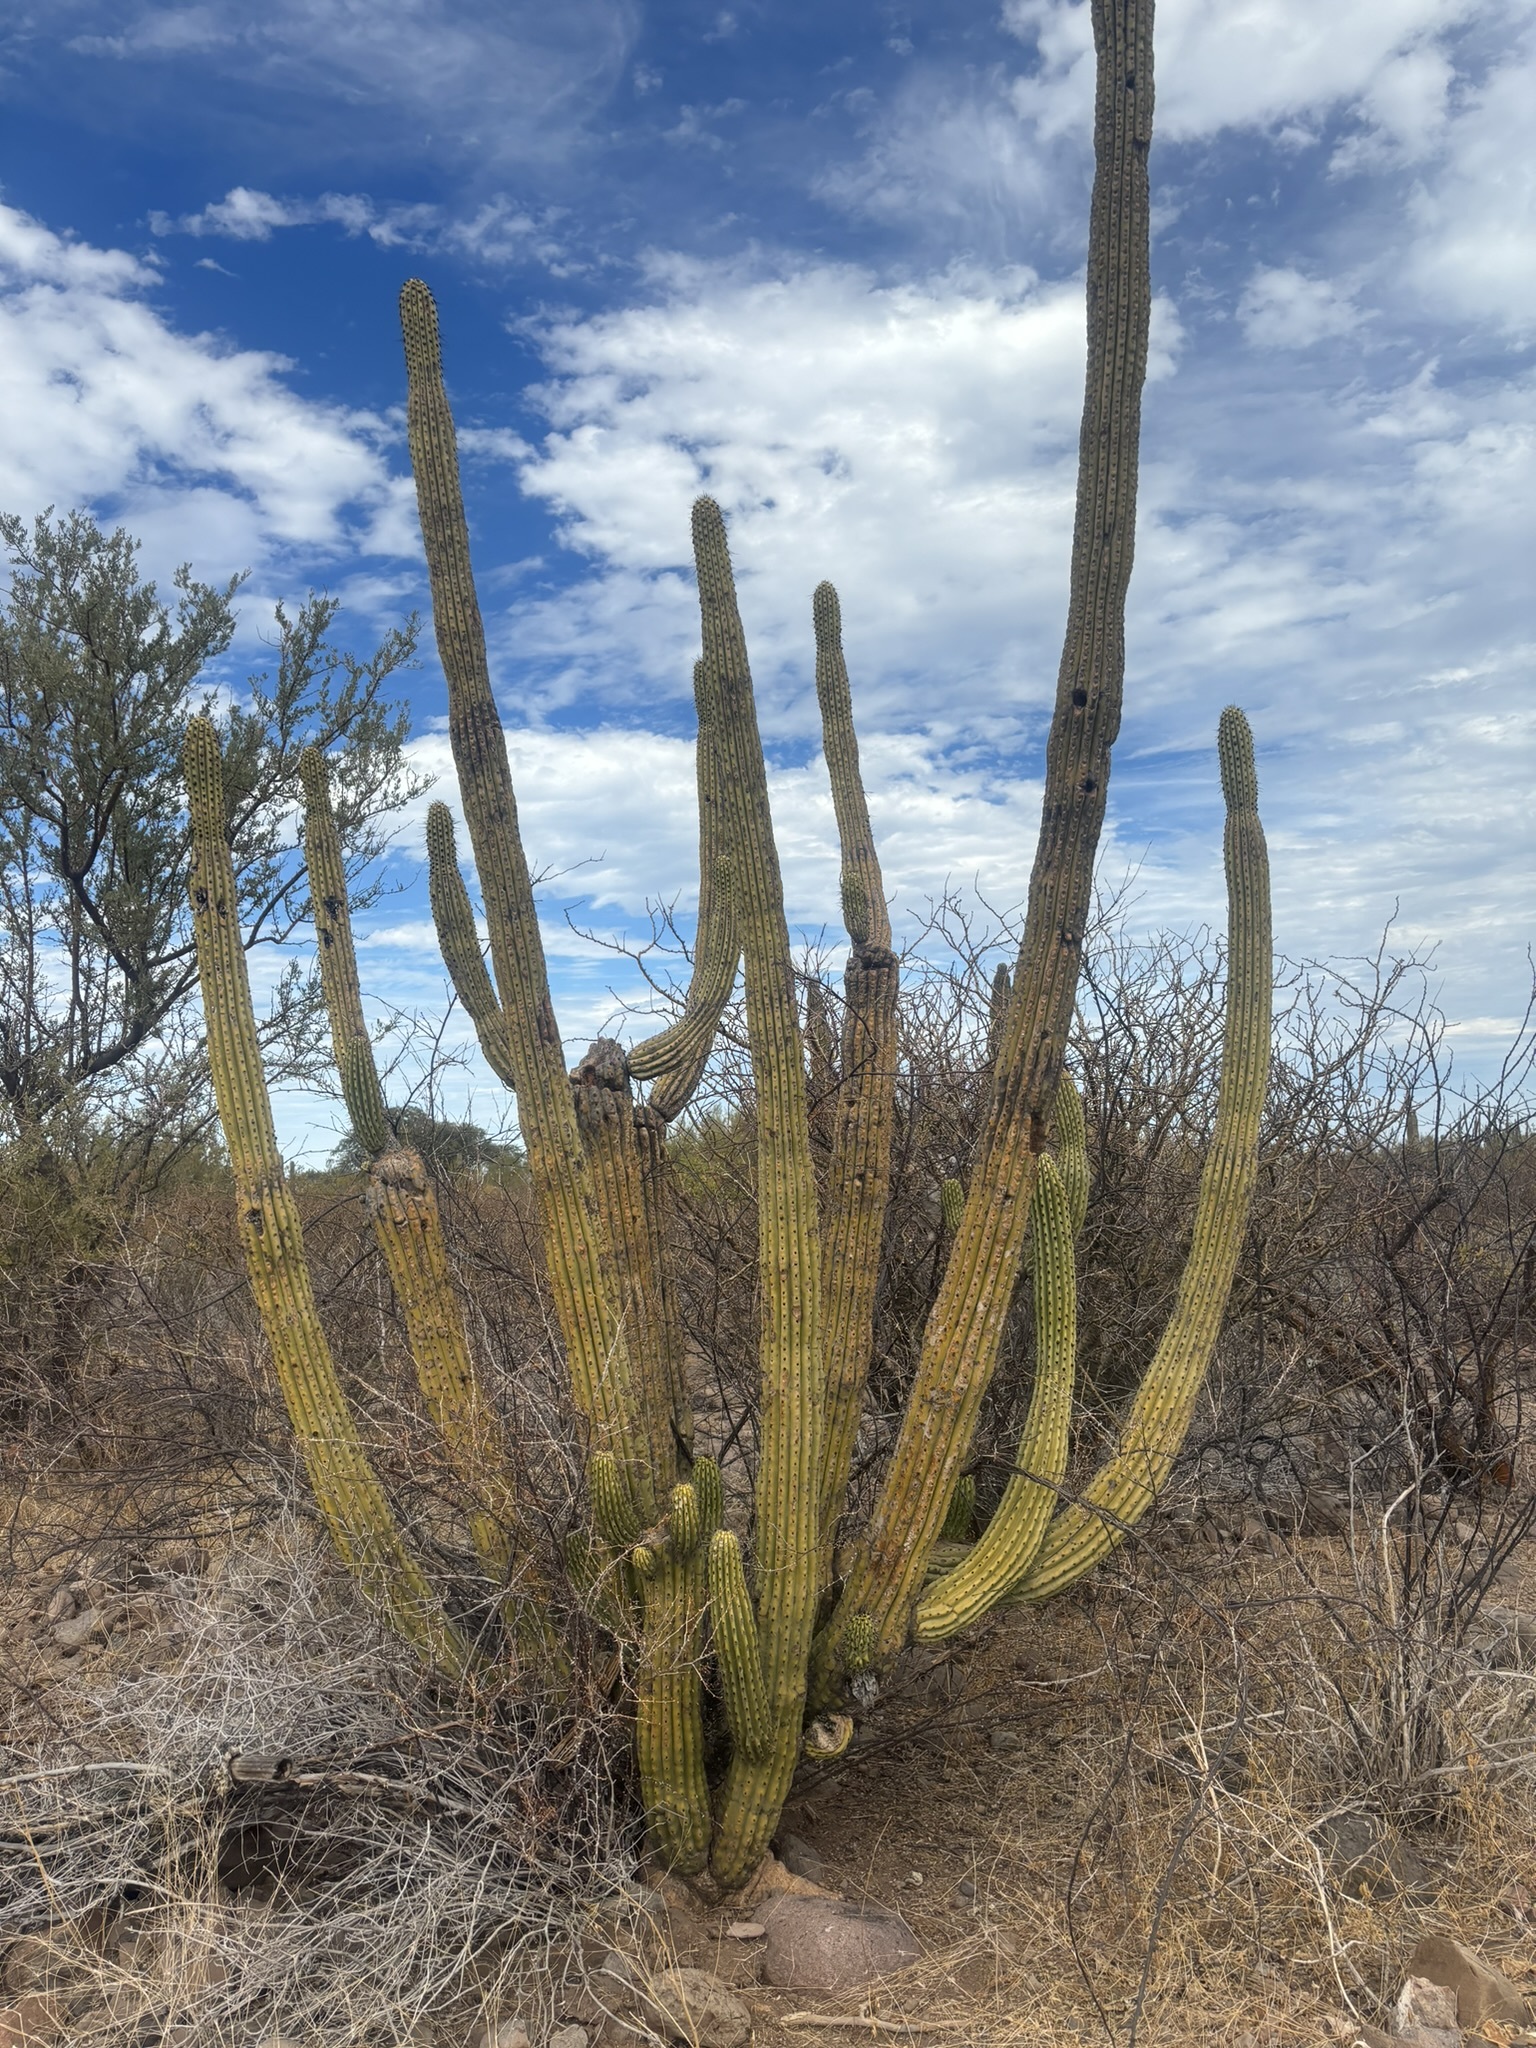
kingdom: Plantae
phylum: Tracheophyta
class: Magnoliopsida
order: Caryophyllales
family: Cactaceae
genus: Stenocereus
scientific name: Stenocereus thurberi
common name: Organ pipe cactus
